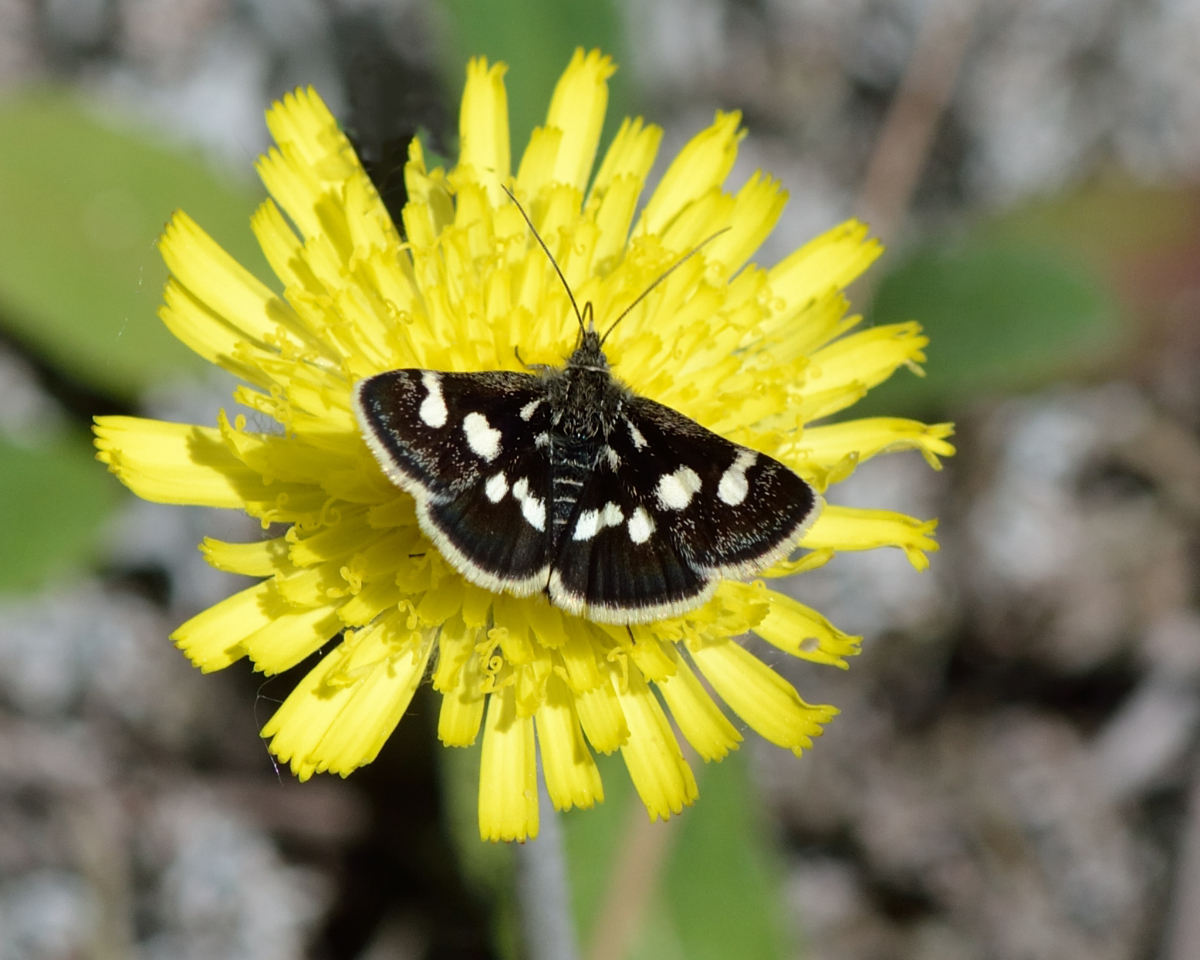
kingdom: Animalia
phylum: Arthropoda
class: Insecta
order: Lepidoptera
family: Crambidae
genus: Eurrhypis
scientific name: Eurrhypis pollinalis
